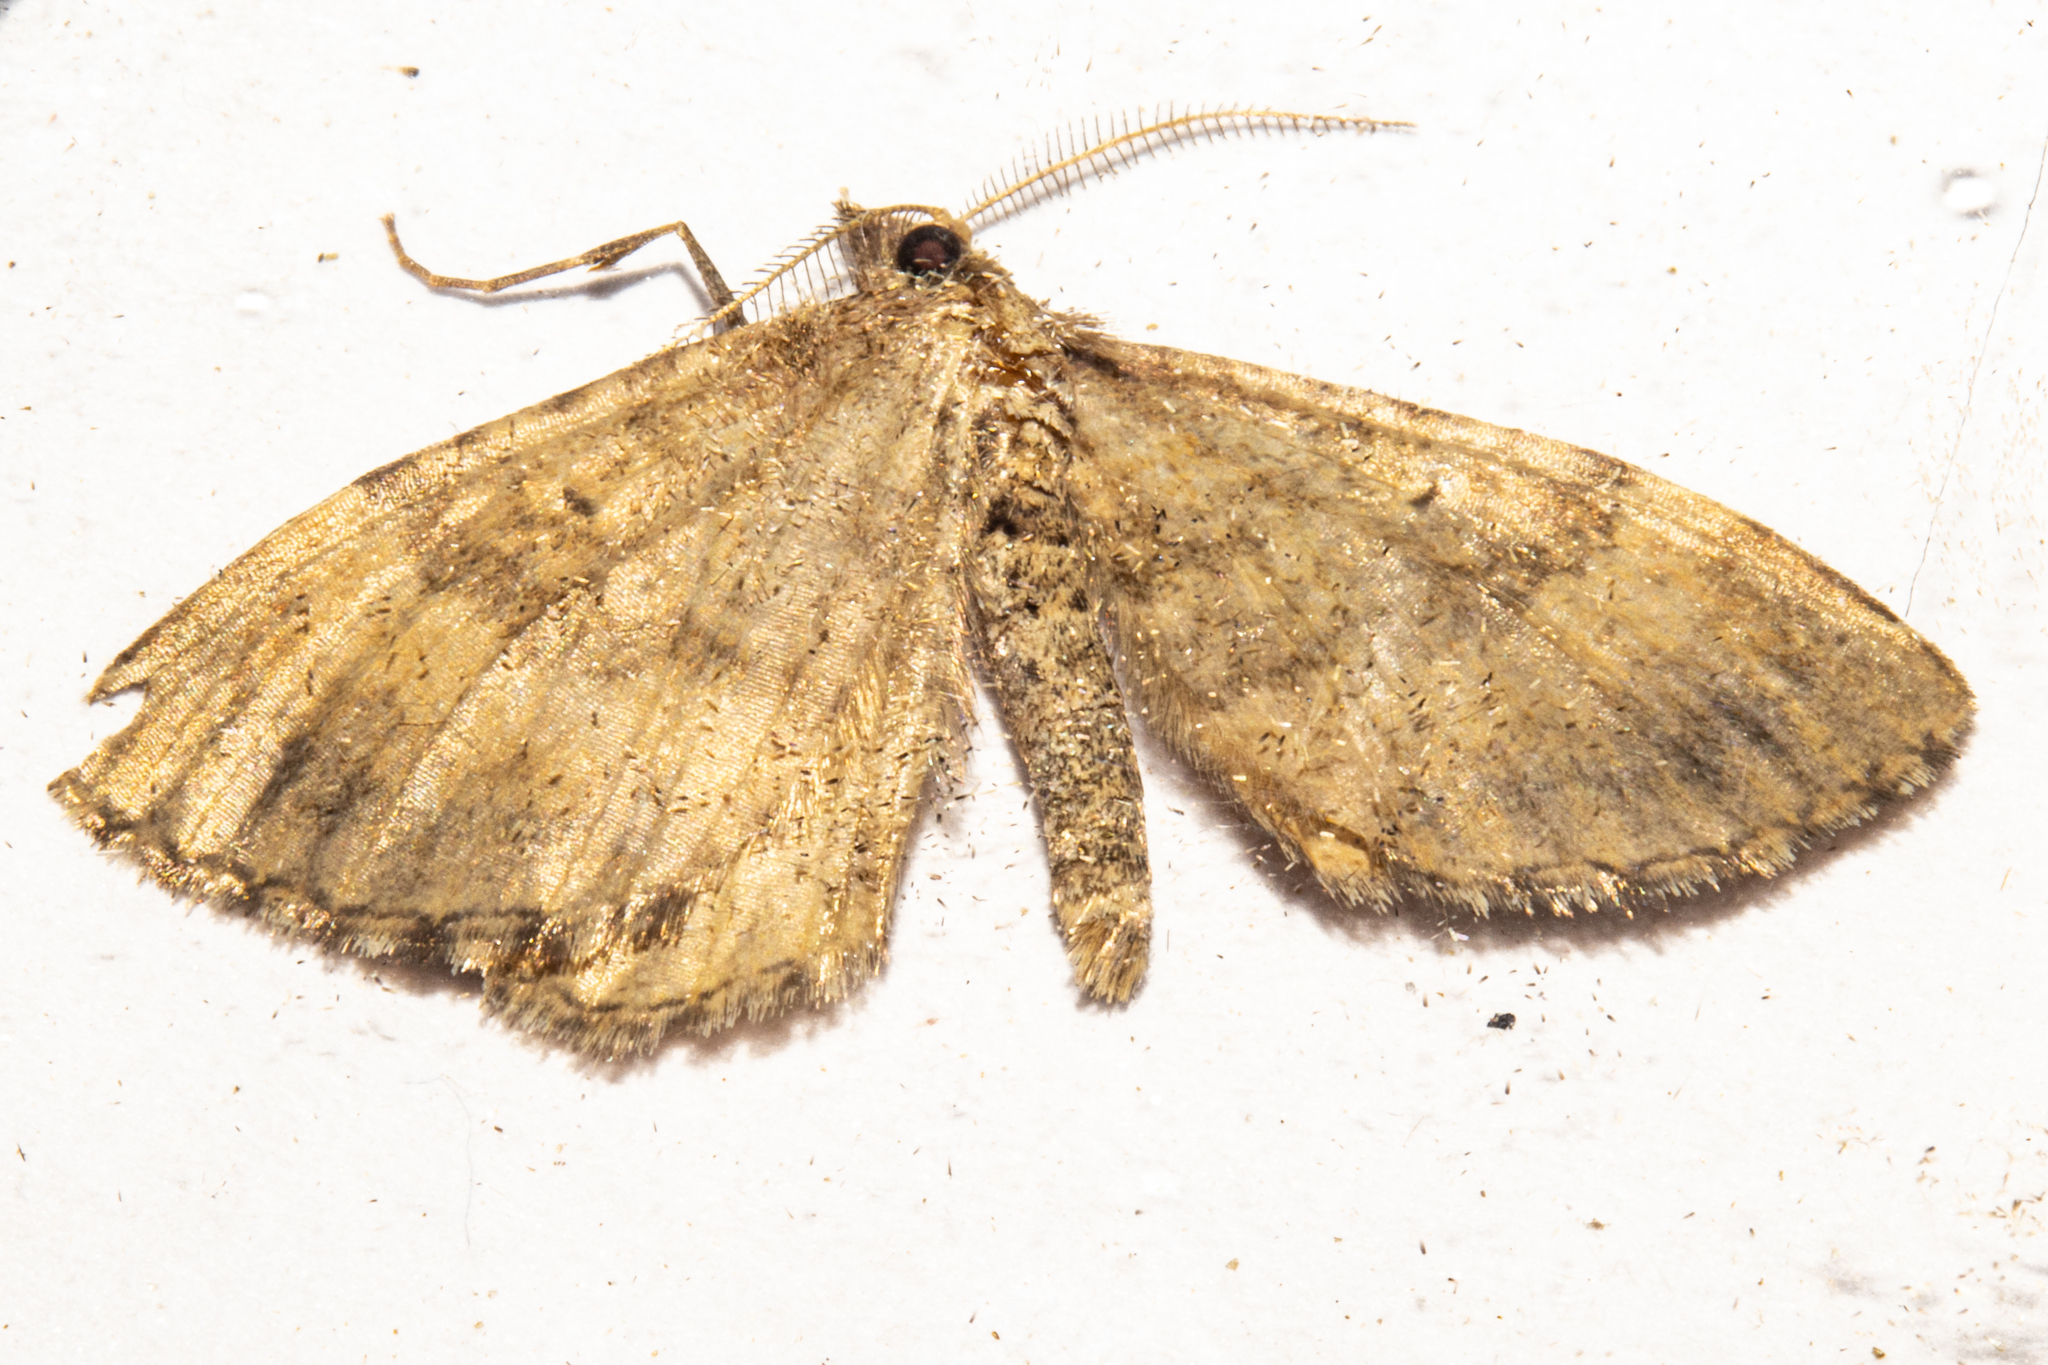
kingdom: Animalia
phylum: Arthropoda
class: Insecta
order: Lepidoptera
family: Geometridae
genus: Asaphodes
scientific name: Asaphodes aegrota
